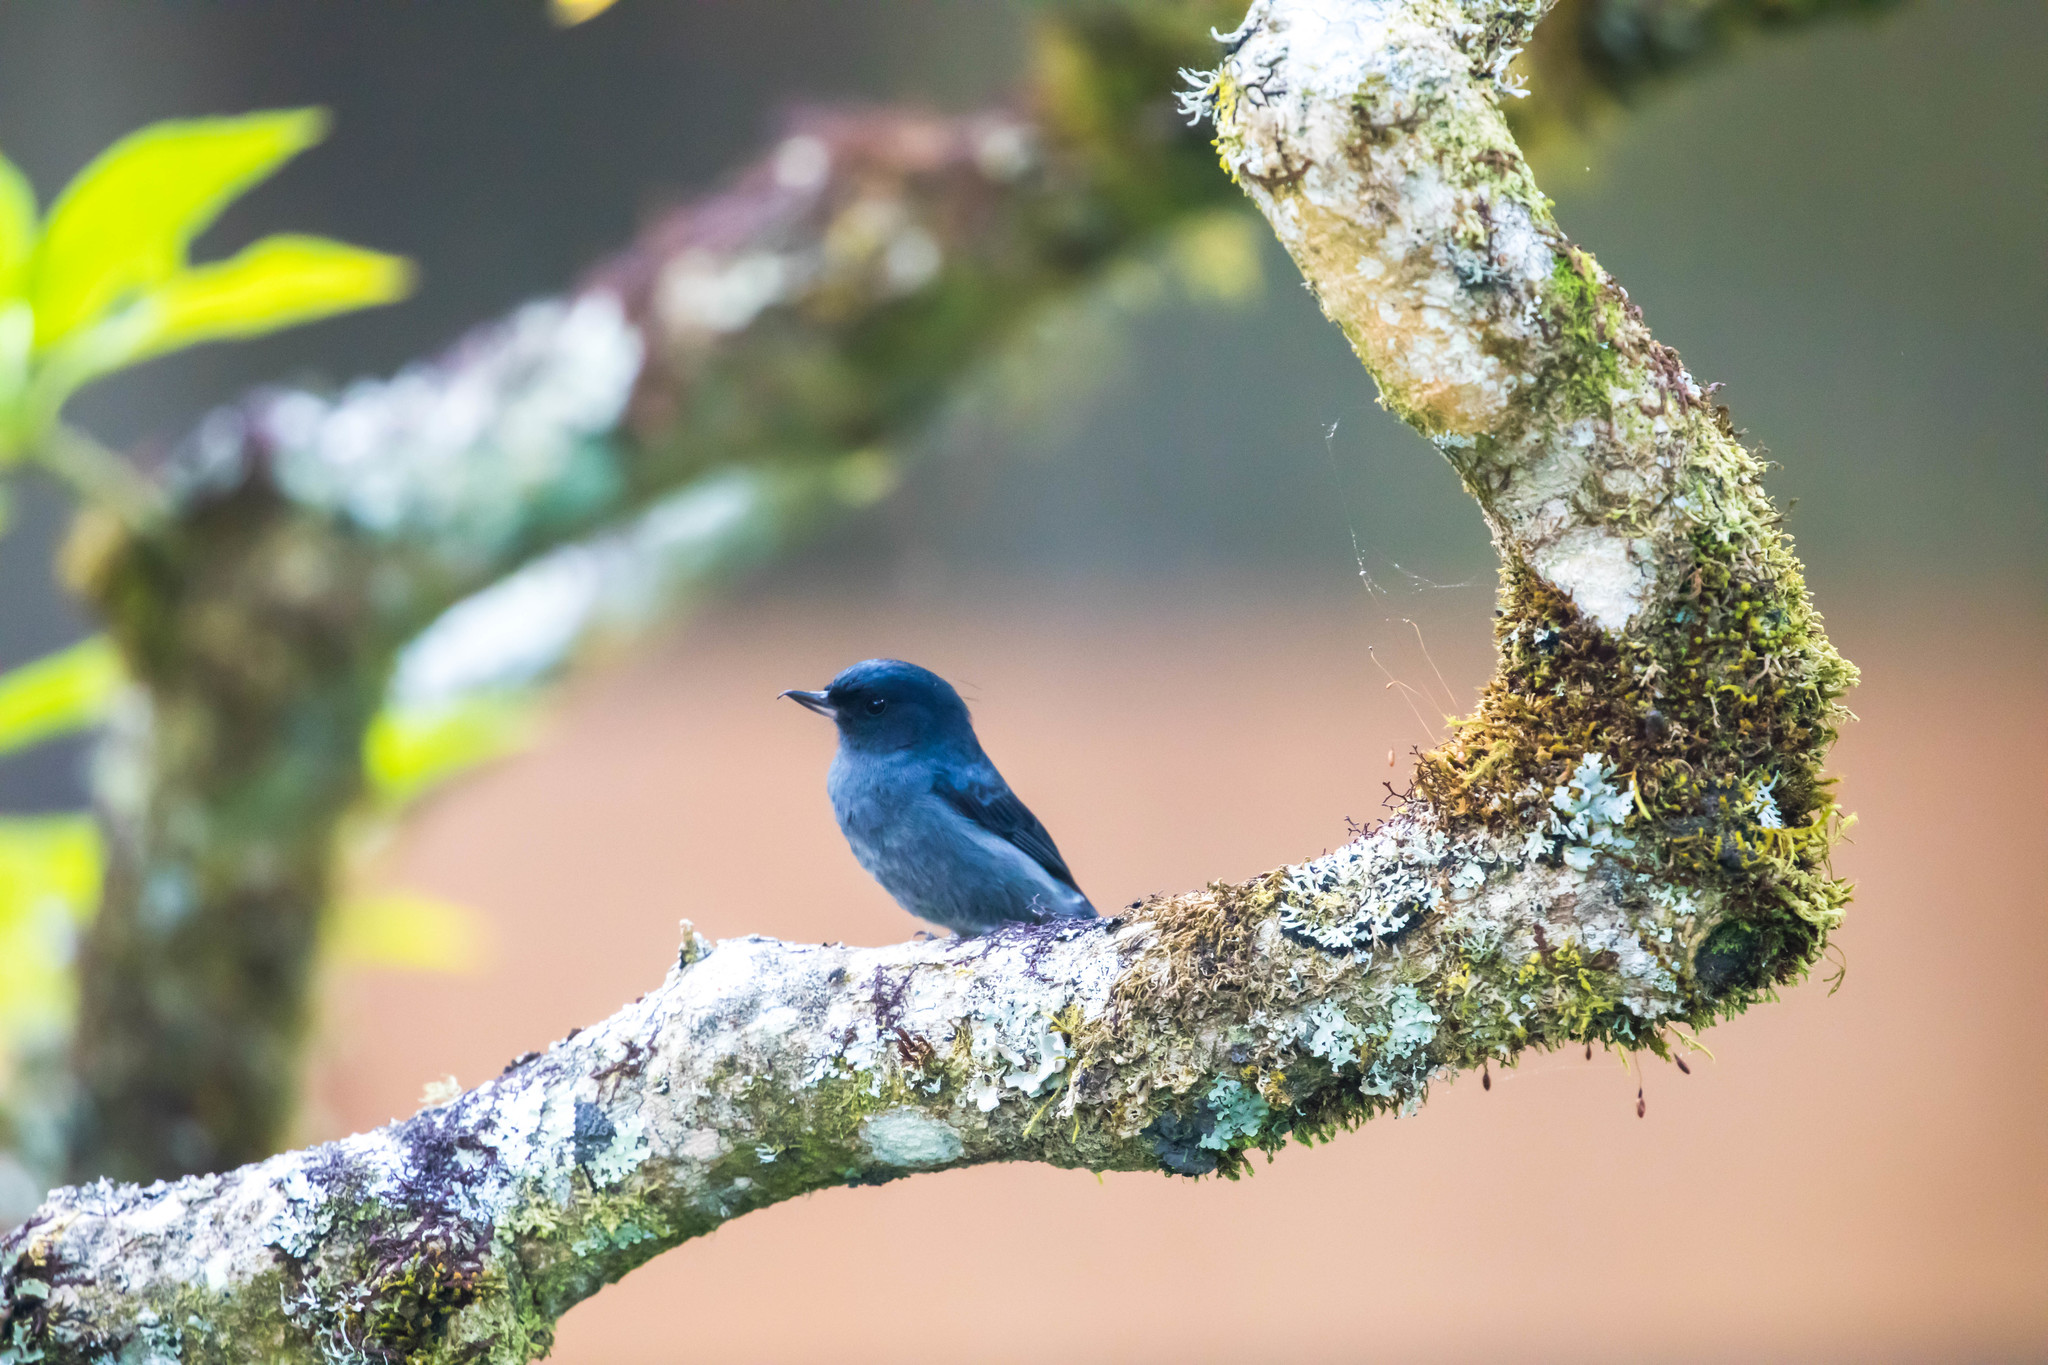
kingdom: Animalia
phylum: Chordata
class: Aves
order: Passeriformes
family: Thraupidae
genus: Diglossa
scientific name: Diglossa plumbea
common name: Slaty flowerpiercer
